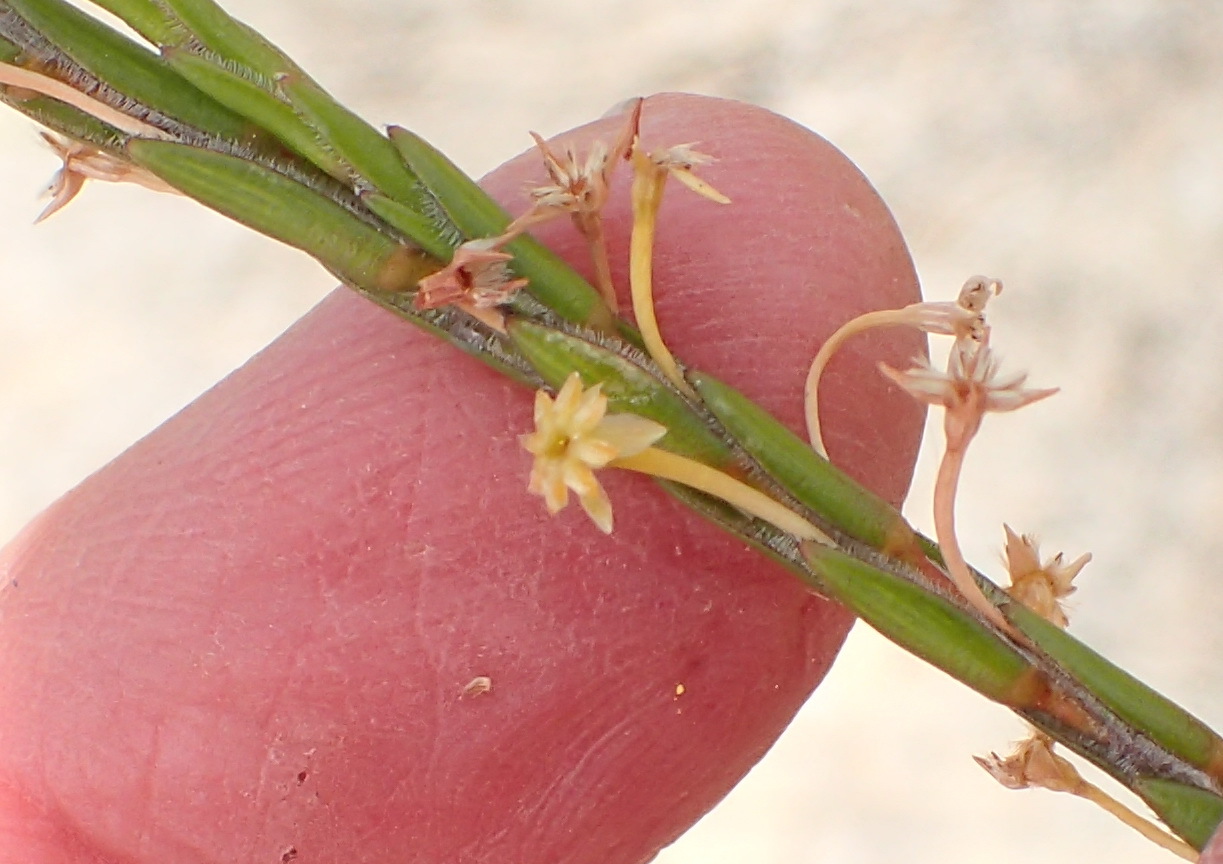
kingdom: Plantae
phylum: Tracheophyta
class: Magnoliopsida
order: Malvales
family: Thymelaeaceae
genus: Struthiola
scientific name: Struthiola eckloniana
